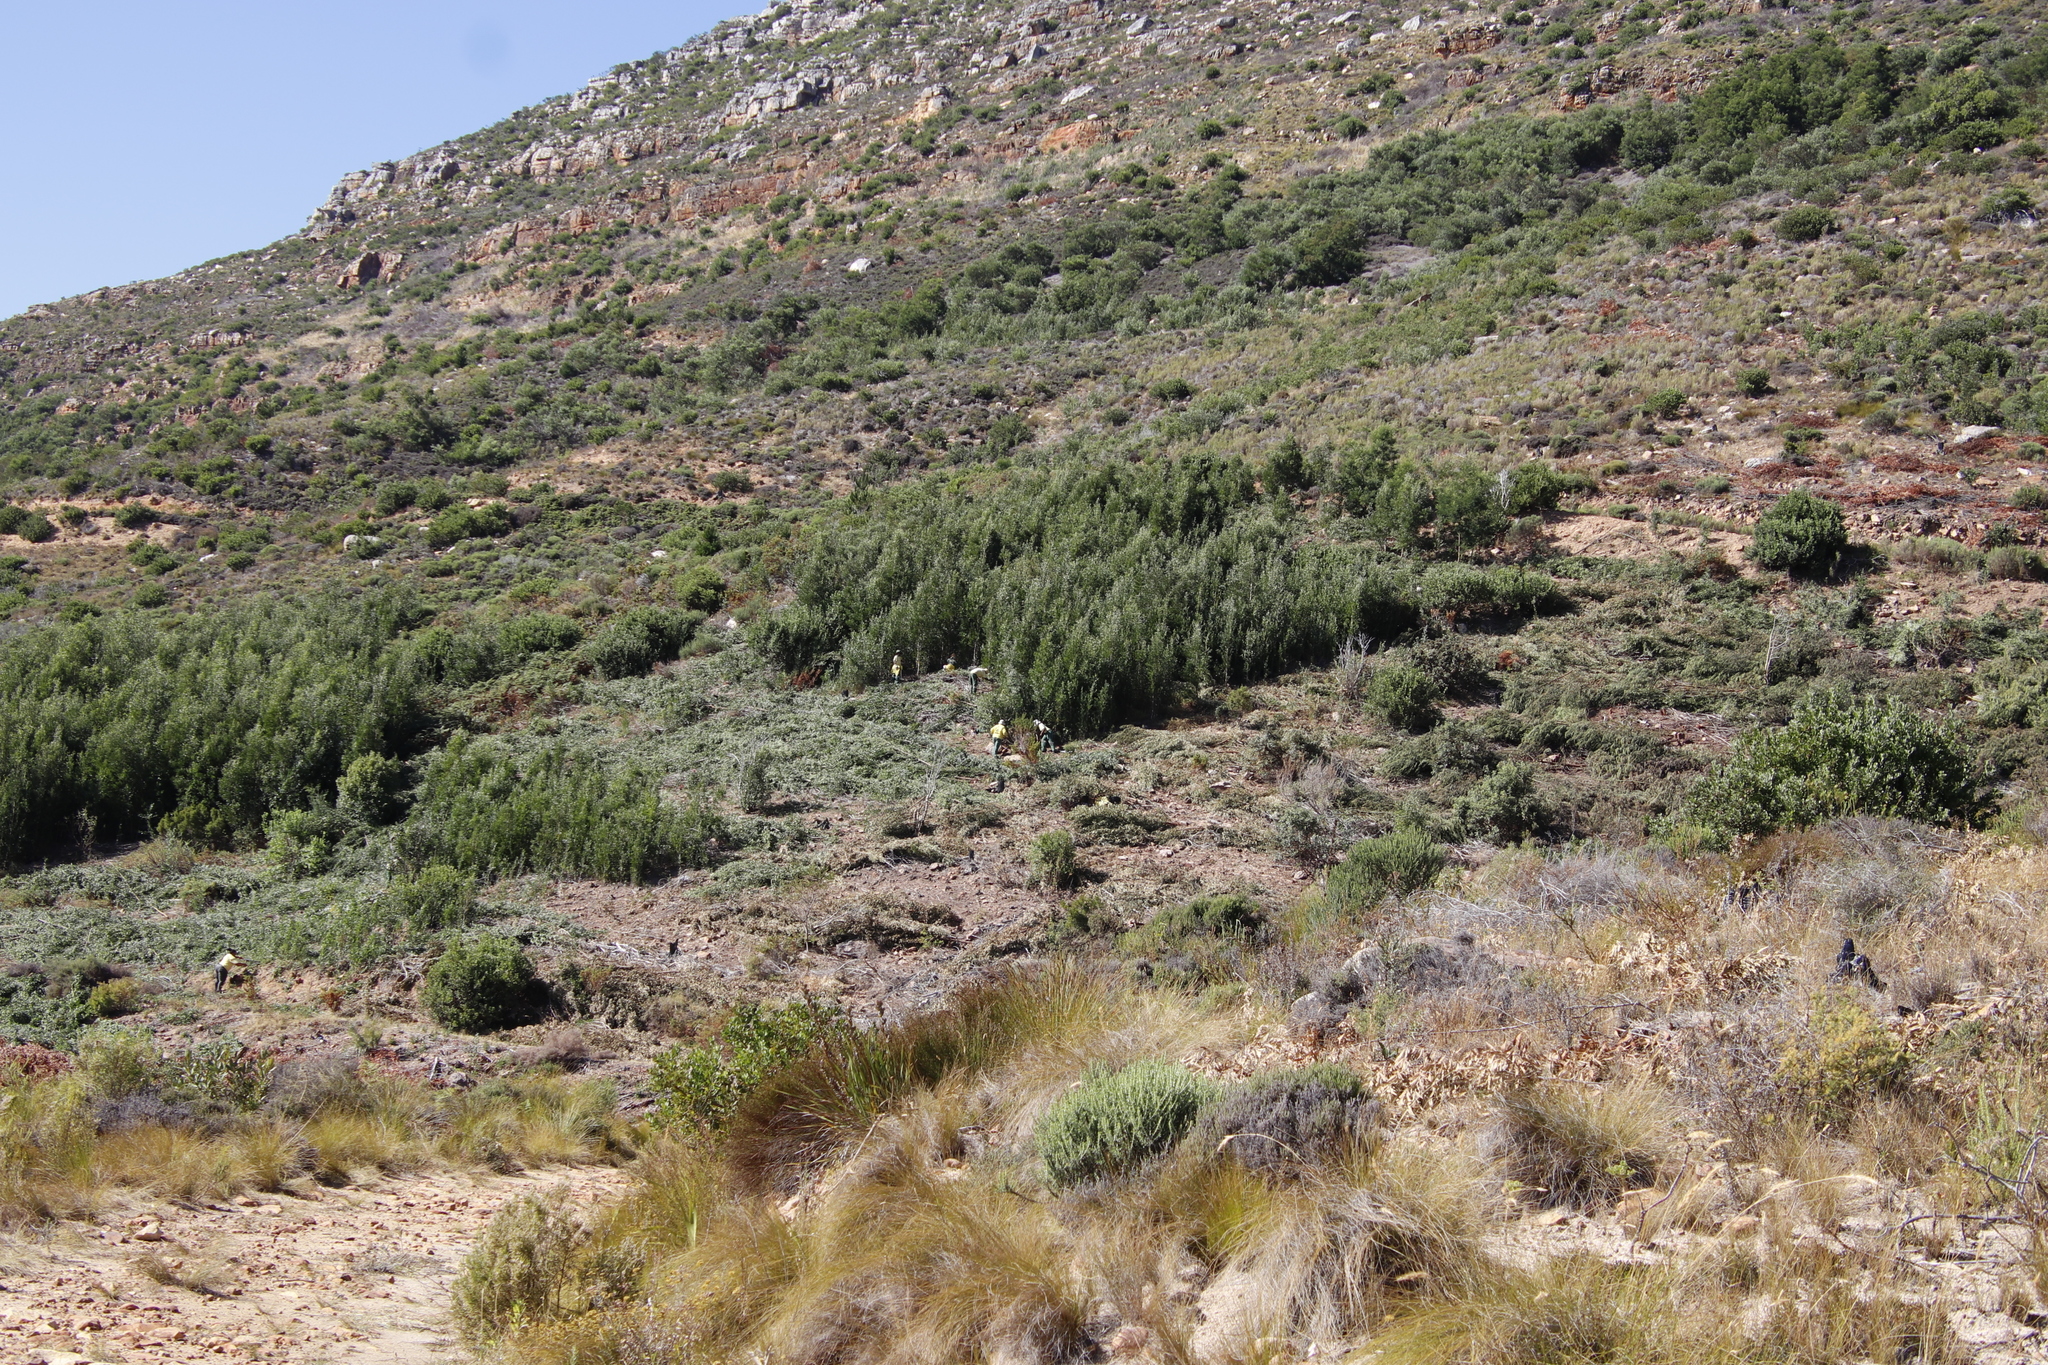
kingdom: Plantae
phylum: Tracheophyta
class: Magnoliopsida
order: Fabales
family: Fabaceae
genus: Acacia
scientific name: Acacia melanoxylon
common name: Blackwood
